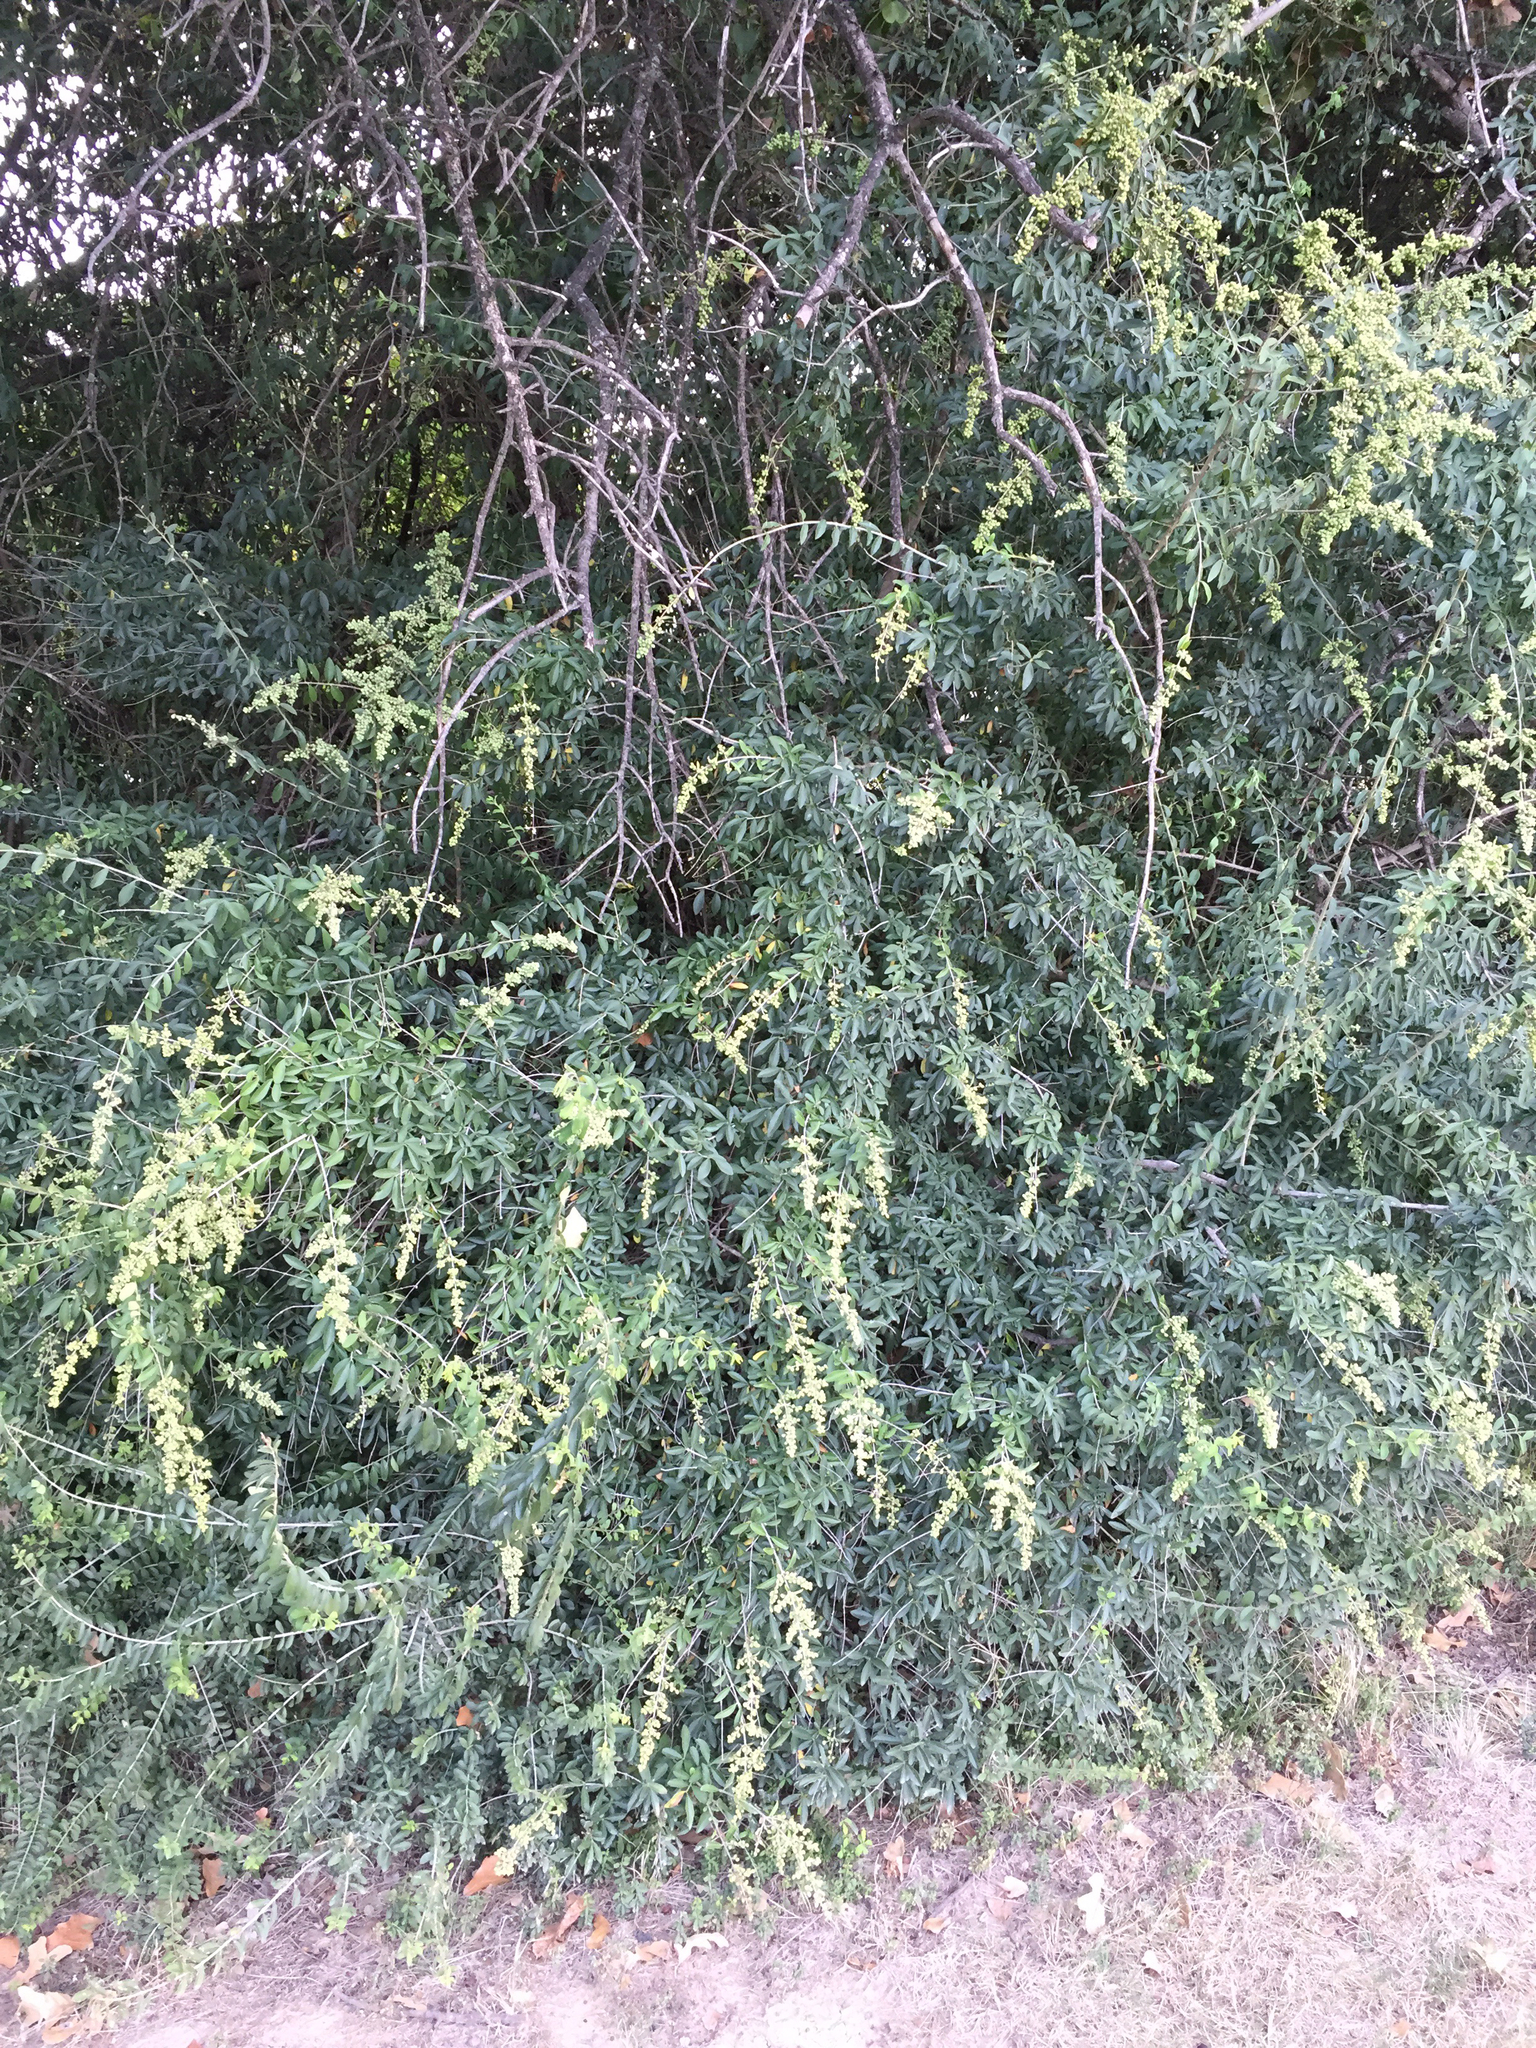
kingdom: Plantae
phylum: Tracheophyta
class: Magnoliopsida
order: Lamiales
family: Oleaceae
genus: Ligustrum
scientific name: Ligustrum quihoui
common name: Waxyleaf privet
